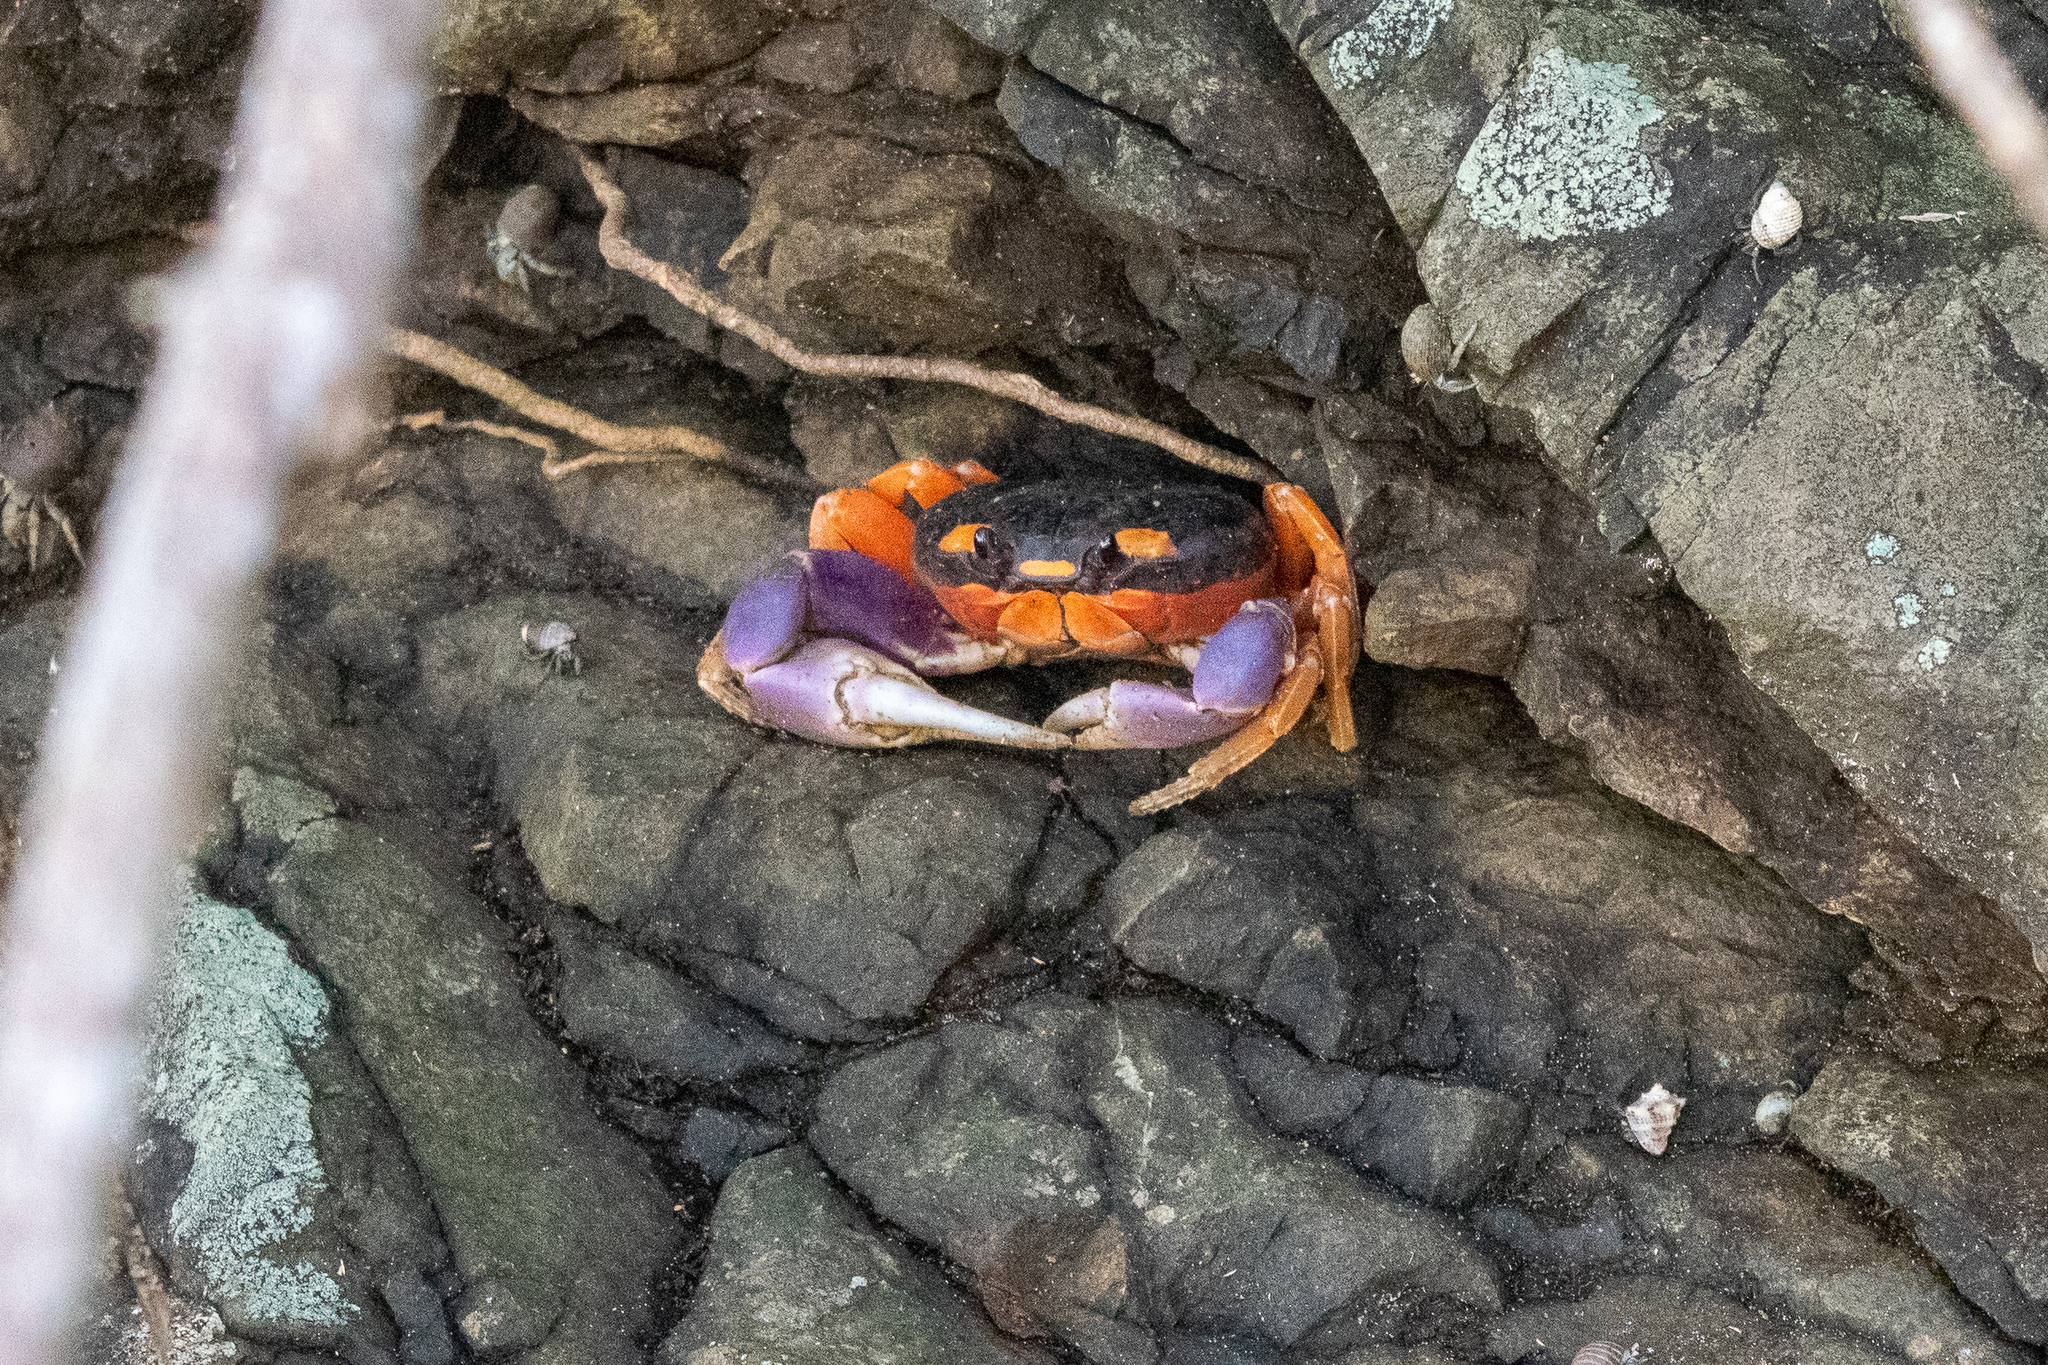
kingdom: Animalia
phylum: Arthropoda
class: Malacostraca
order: Decapoda
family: Gecarcinidae
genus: Gecarcinus
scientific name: Gecarcinus quadratus
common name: Halloween crab
